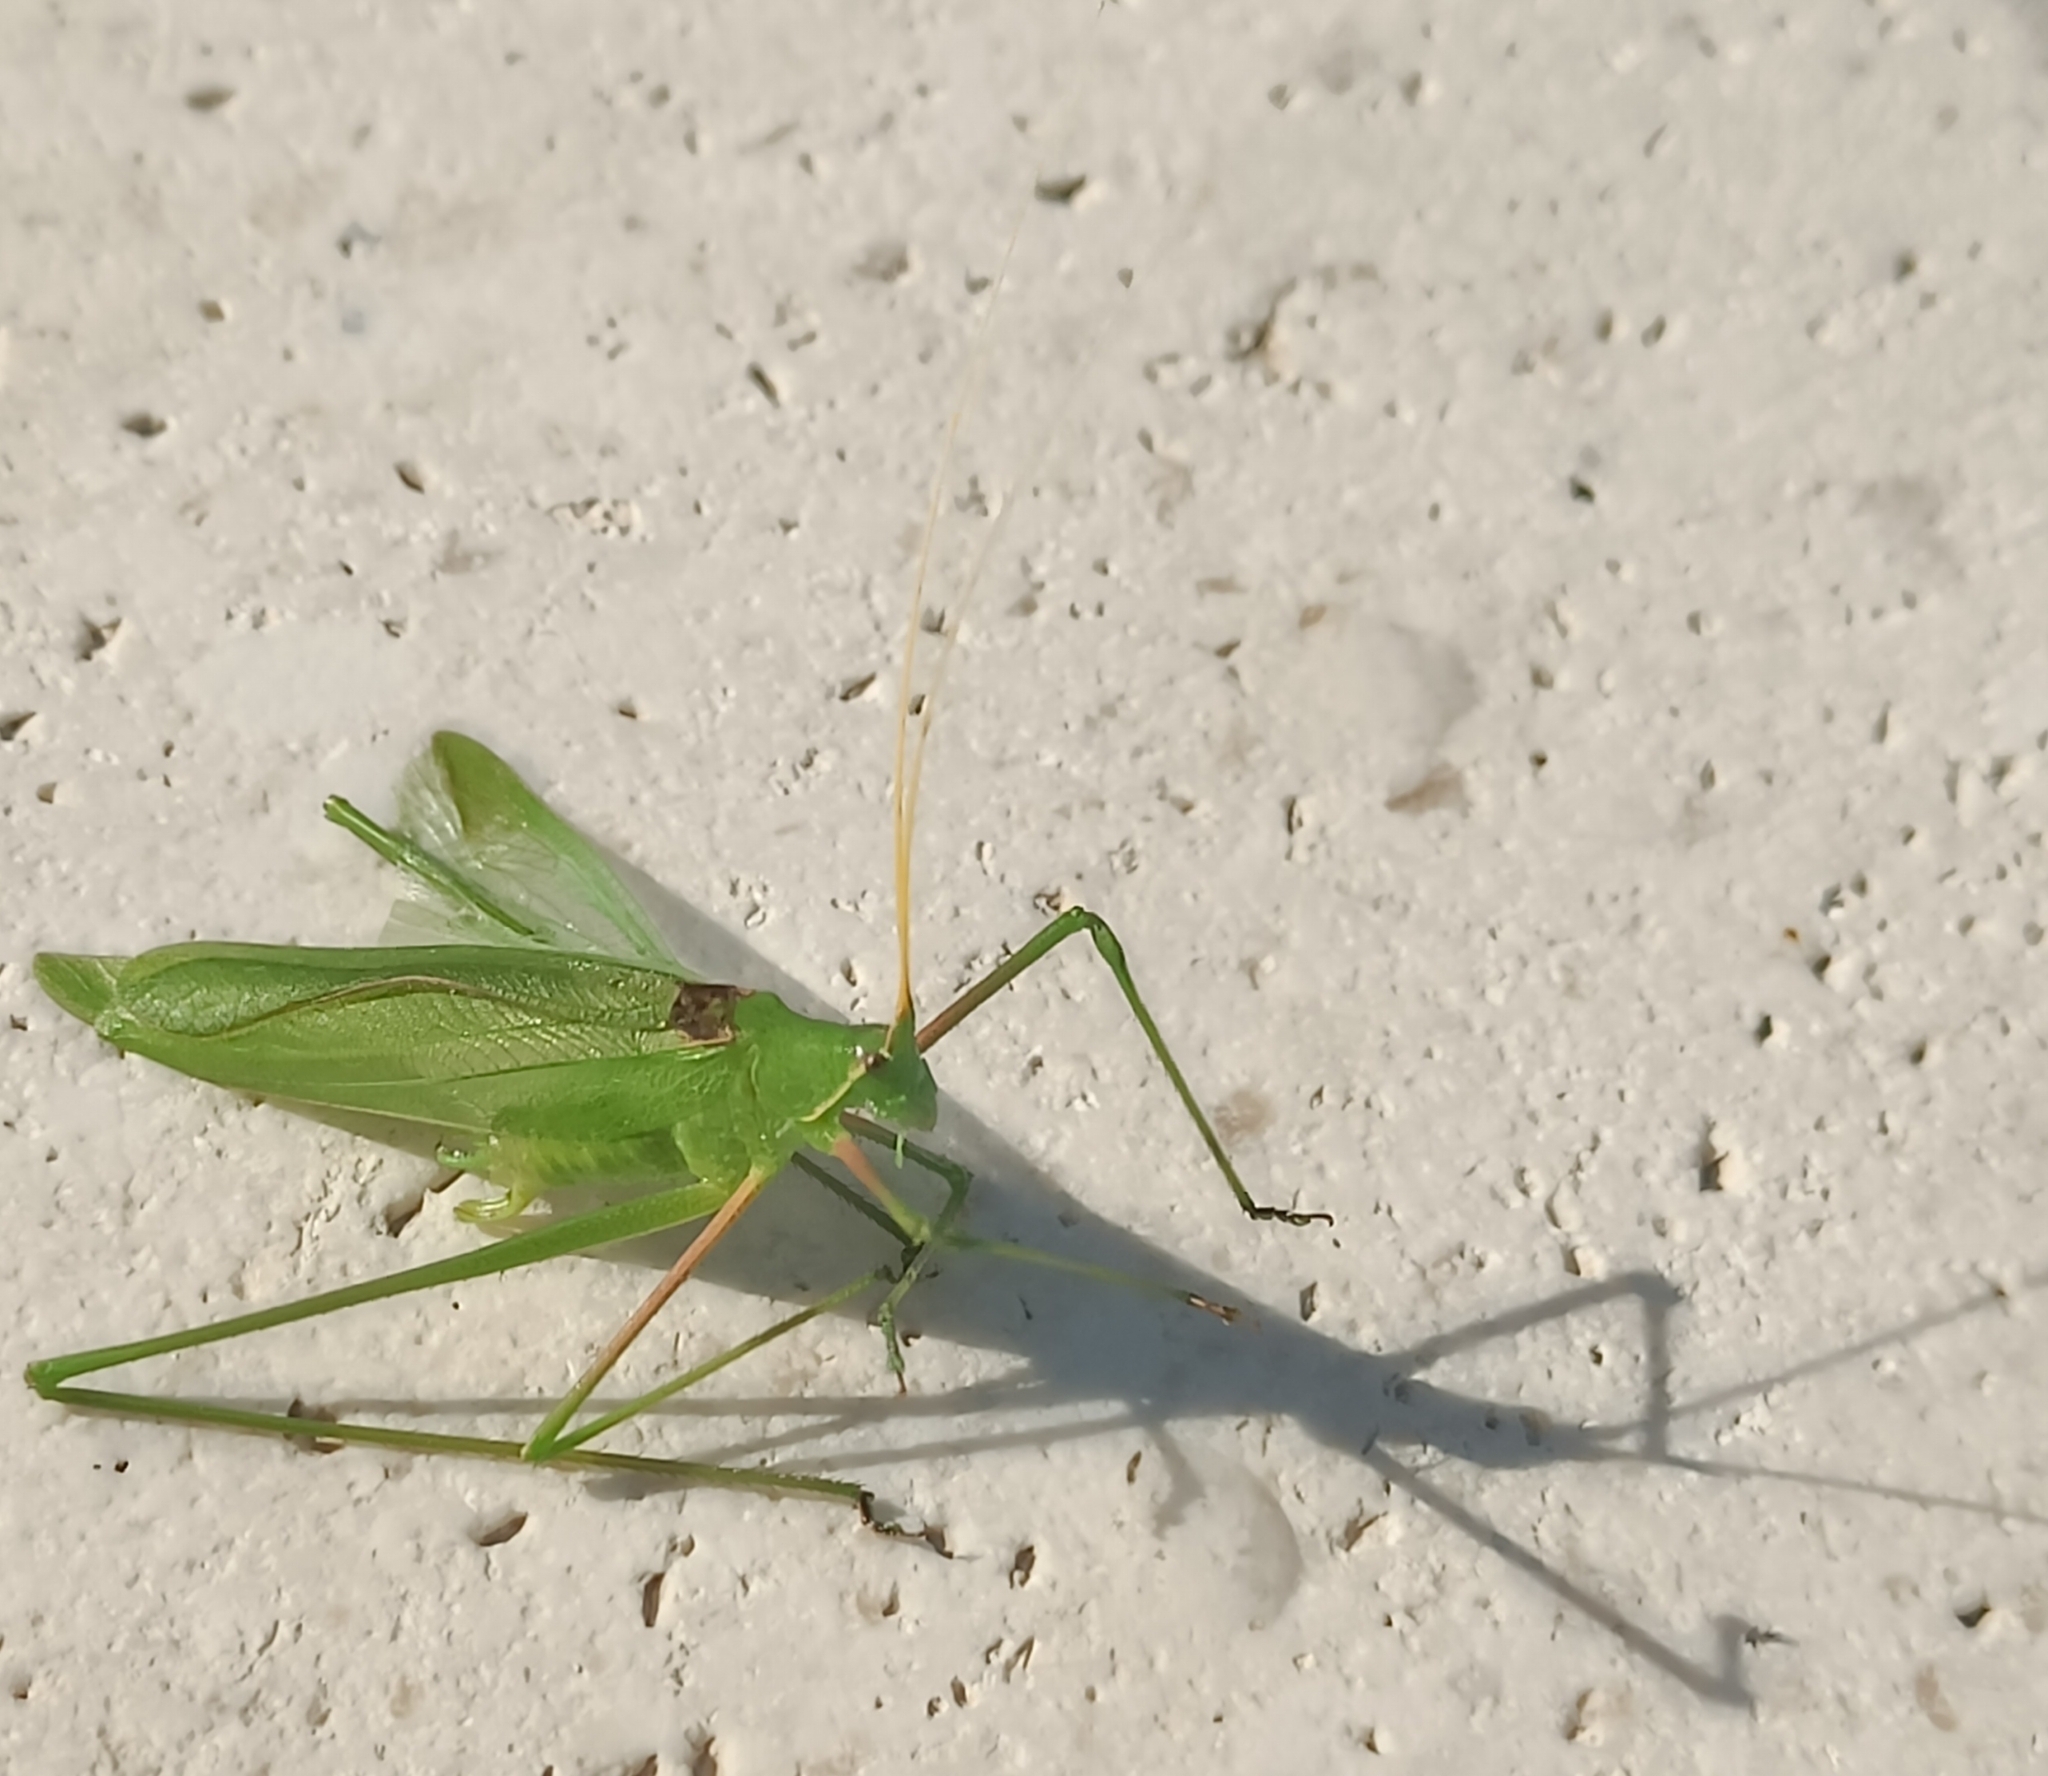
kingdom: Animalia
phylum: Arthropoda
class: Insecta
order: Orthoptera
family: Tettigoniidae
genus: Acrometopa
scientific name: Acrometopa macropoda
